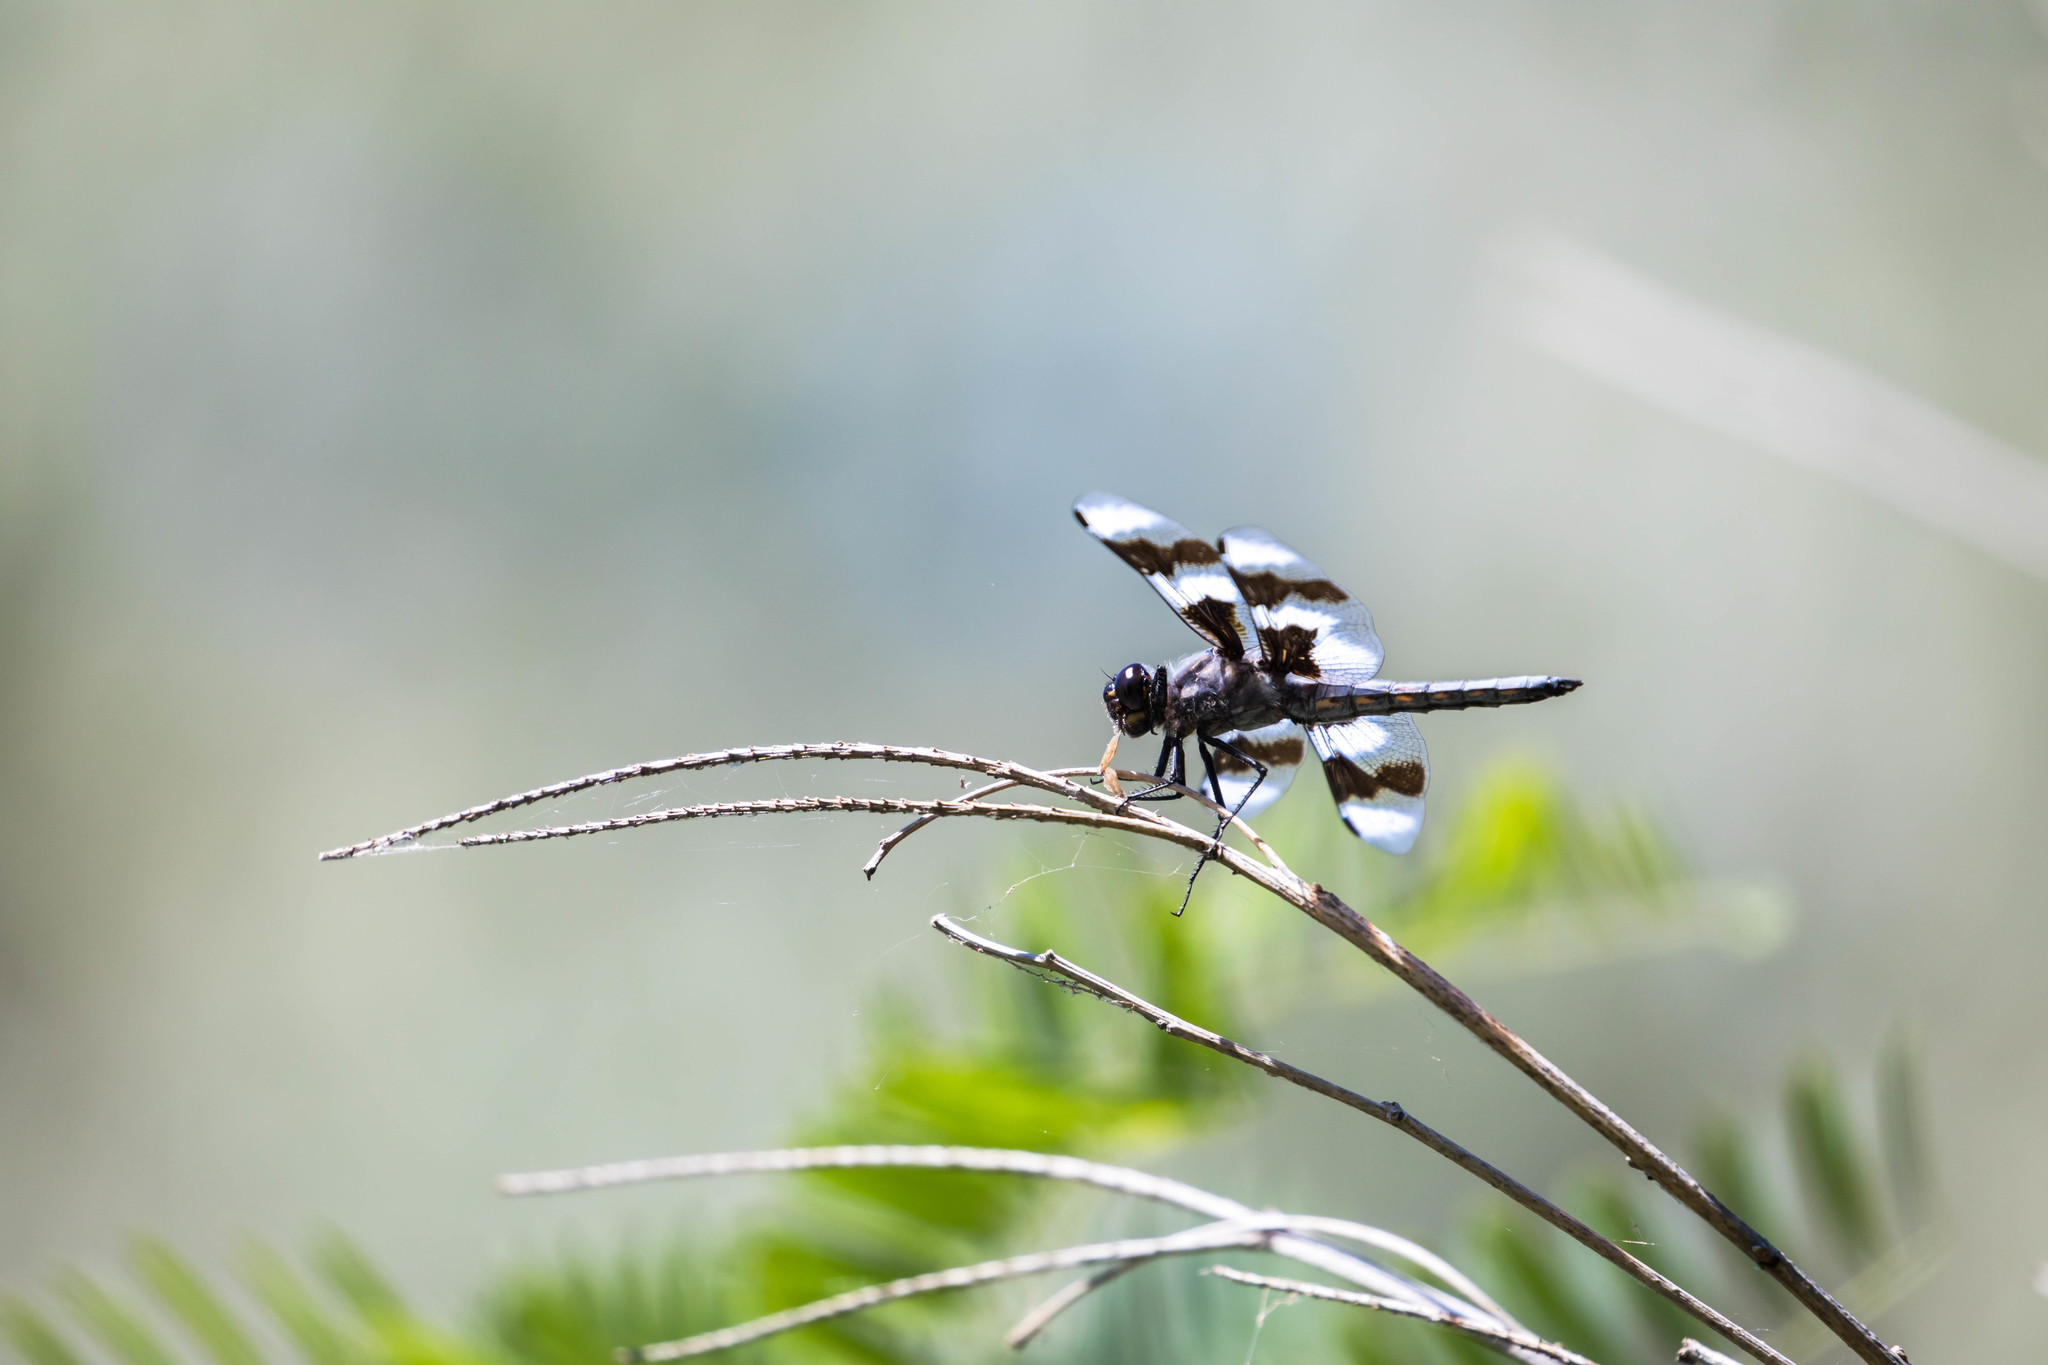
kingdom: Animalia
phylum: Arthropoda
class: Insecta
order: Odonata
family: Libellulidae
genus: Libellula
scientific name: Libellula forensis
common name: Eight-spotted skimmer
